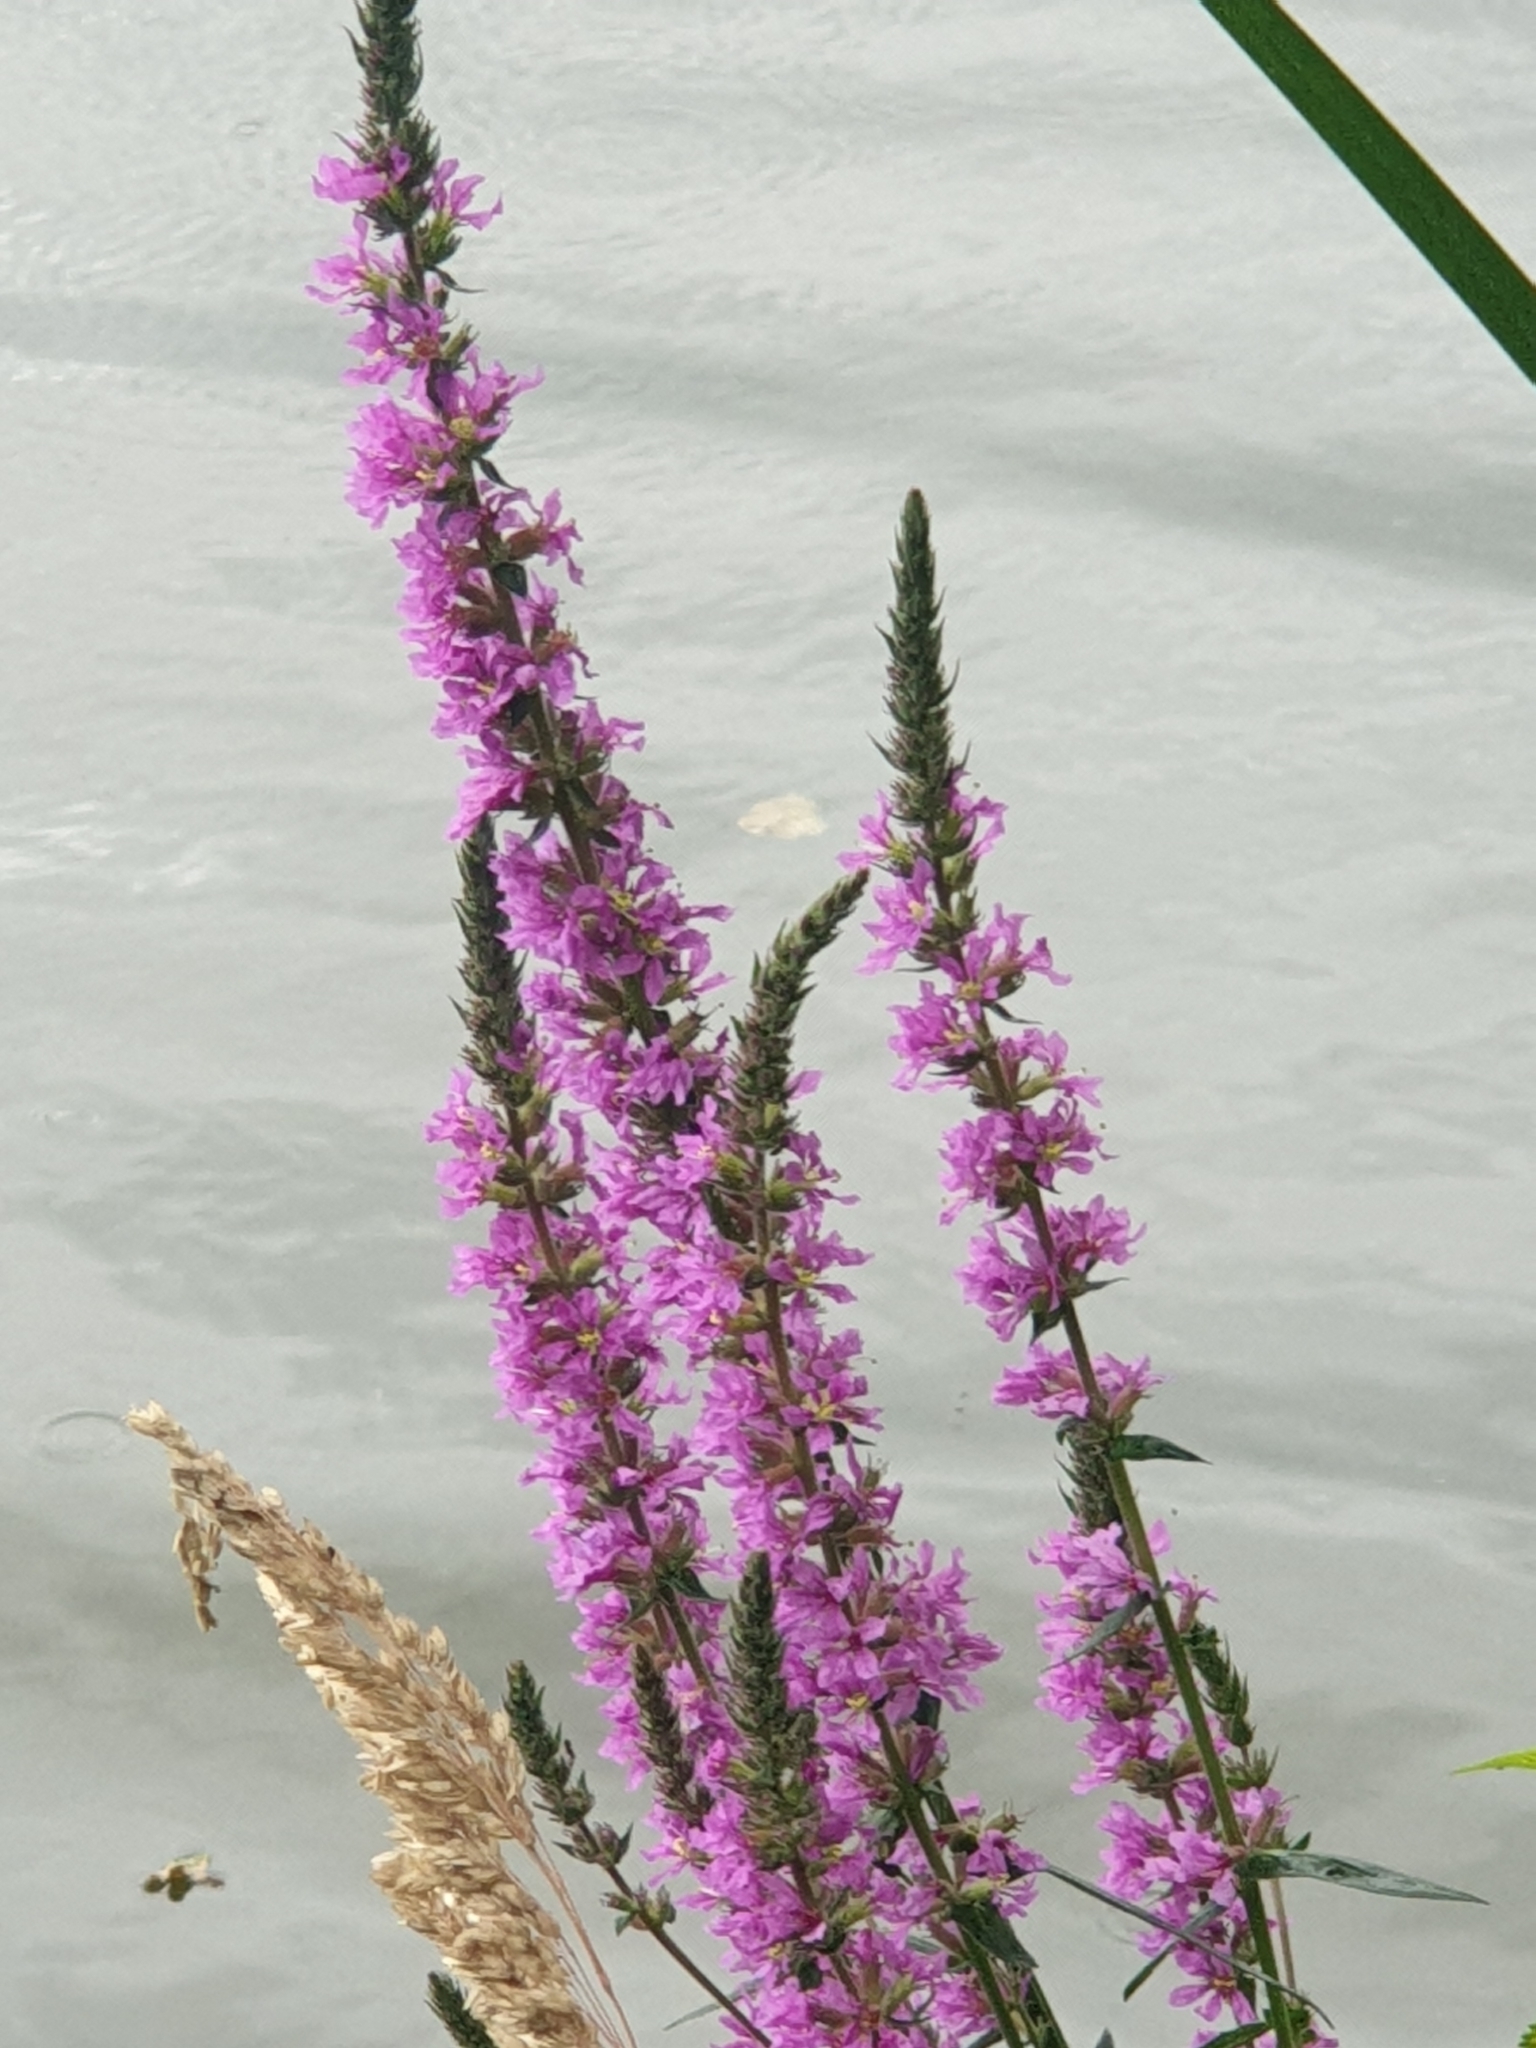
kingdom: Plantae
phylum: Tracheophyta
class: Magnoliopsida
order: Myrtales
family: Lythraceae
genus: Lythrum
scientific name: Lythrum salicaria
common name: Purple loosestrife
